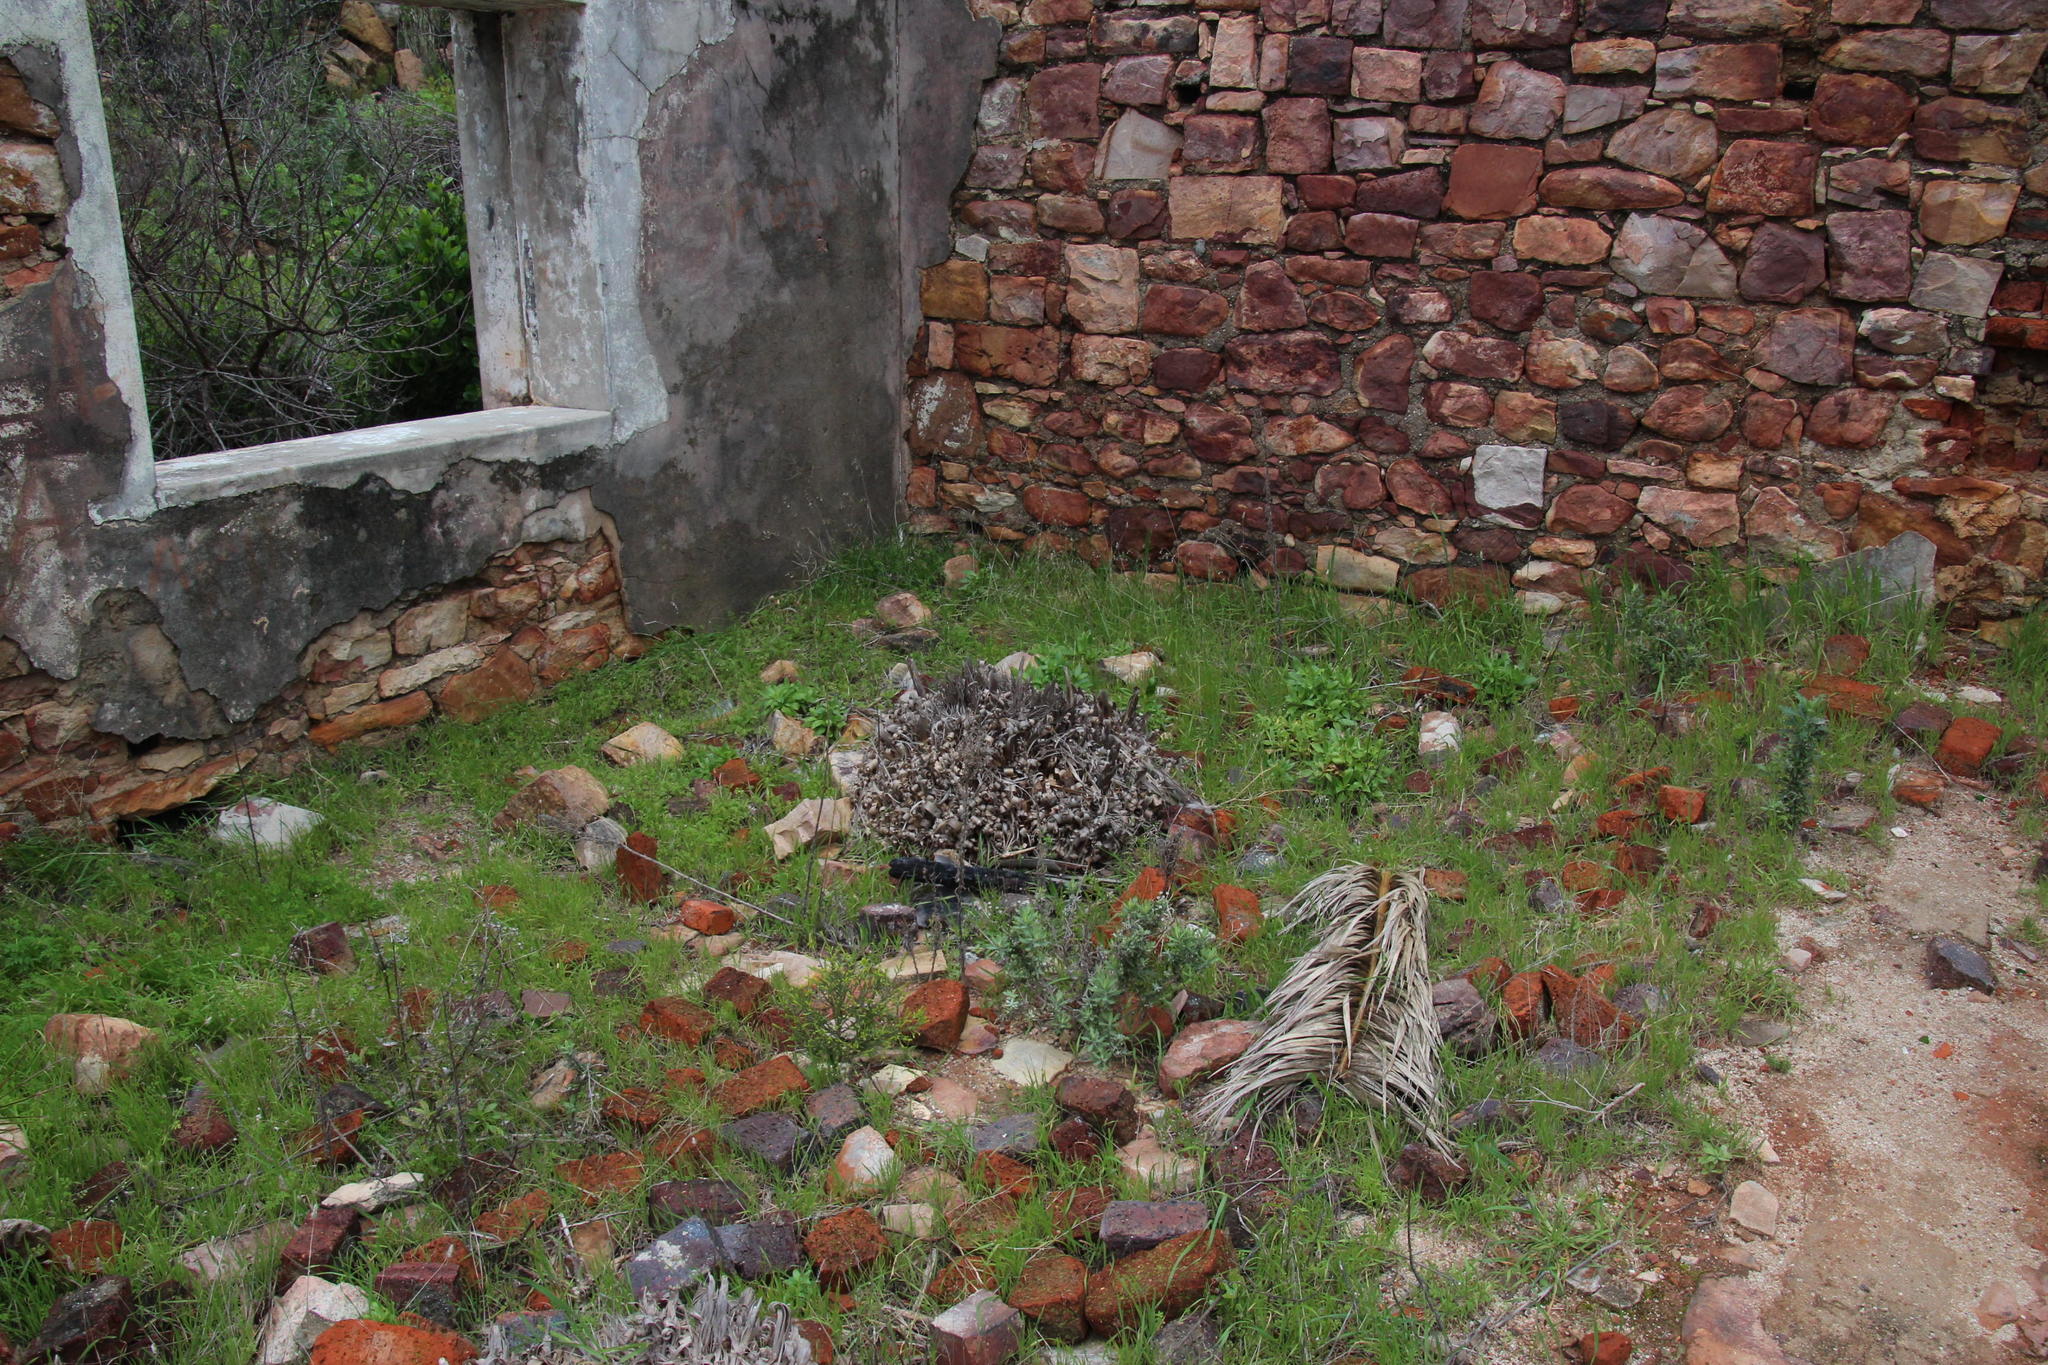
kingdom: Plantae
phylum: Tracheophyta
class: Liliopsida
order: Poales
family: Poaceae
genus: Cortaderia
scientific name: Cortaderia selloana
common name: Uruguayan pampas grass
